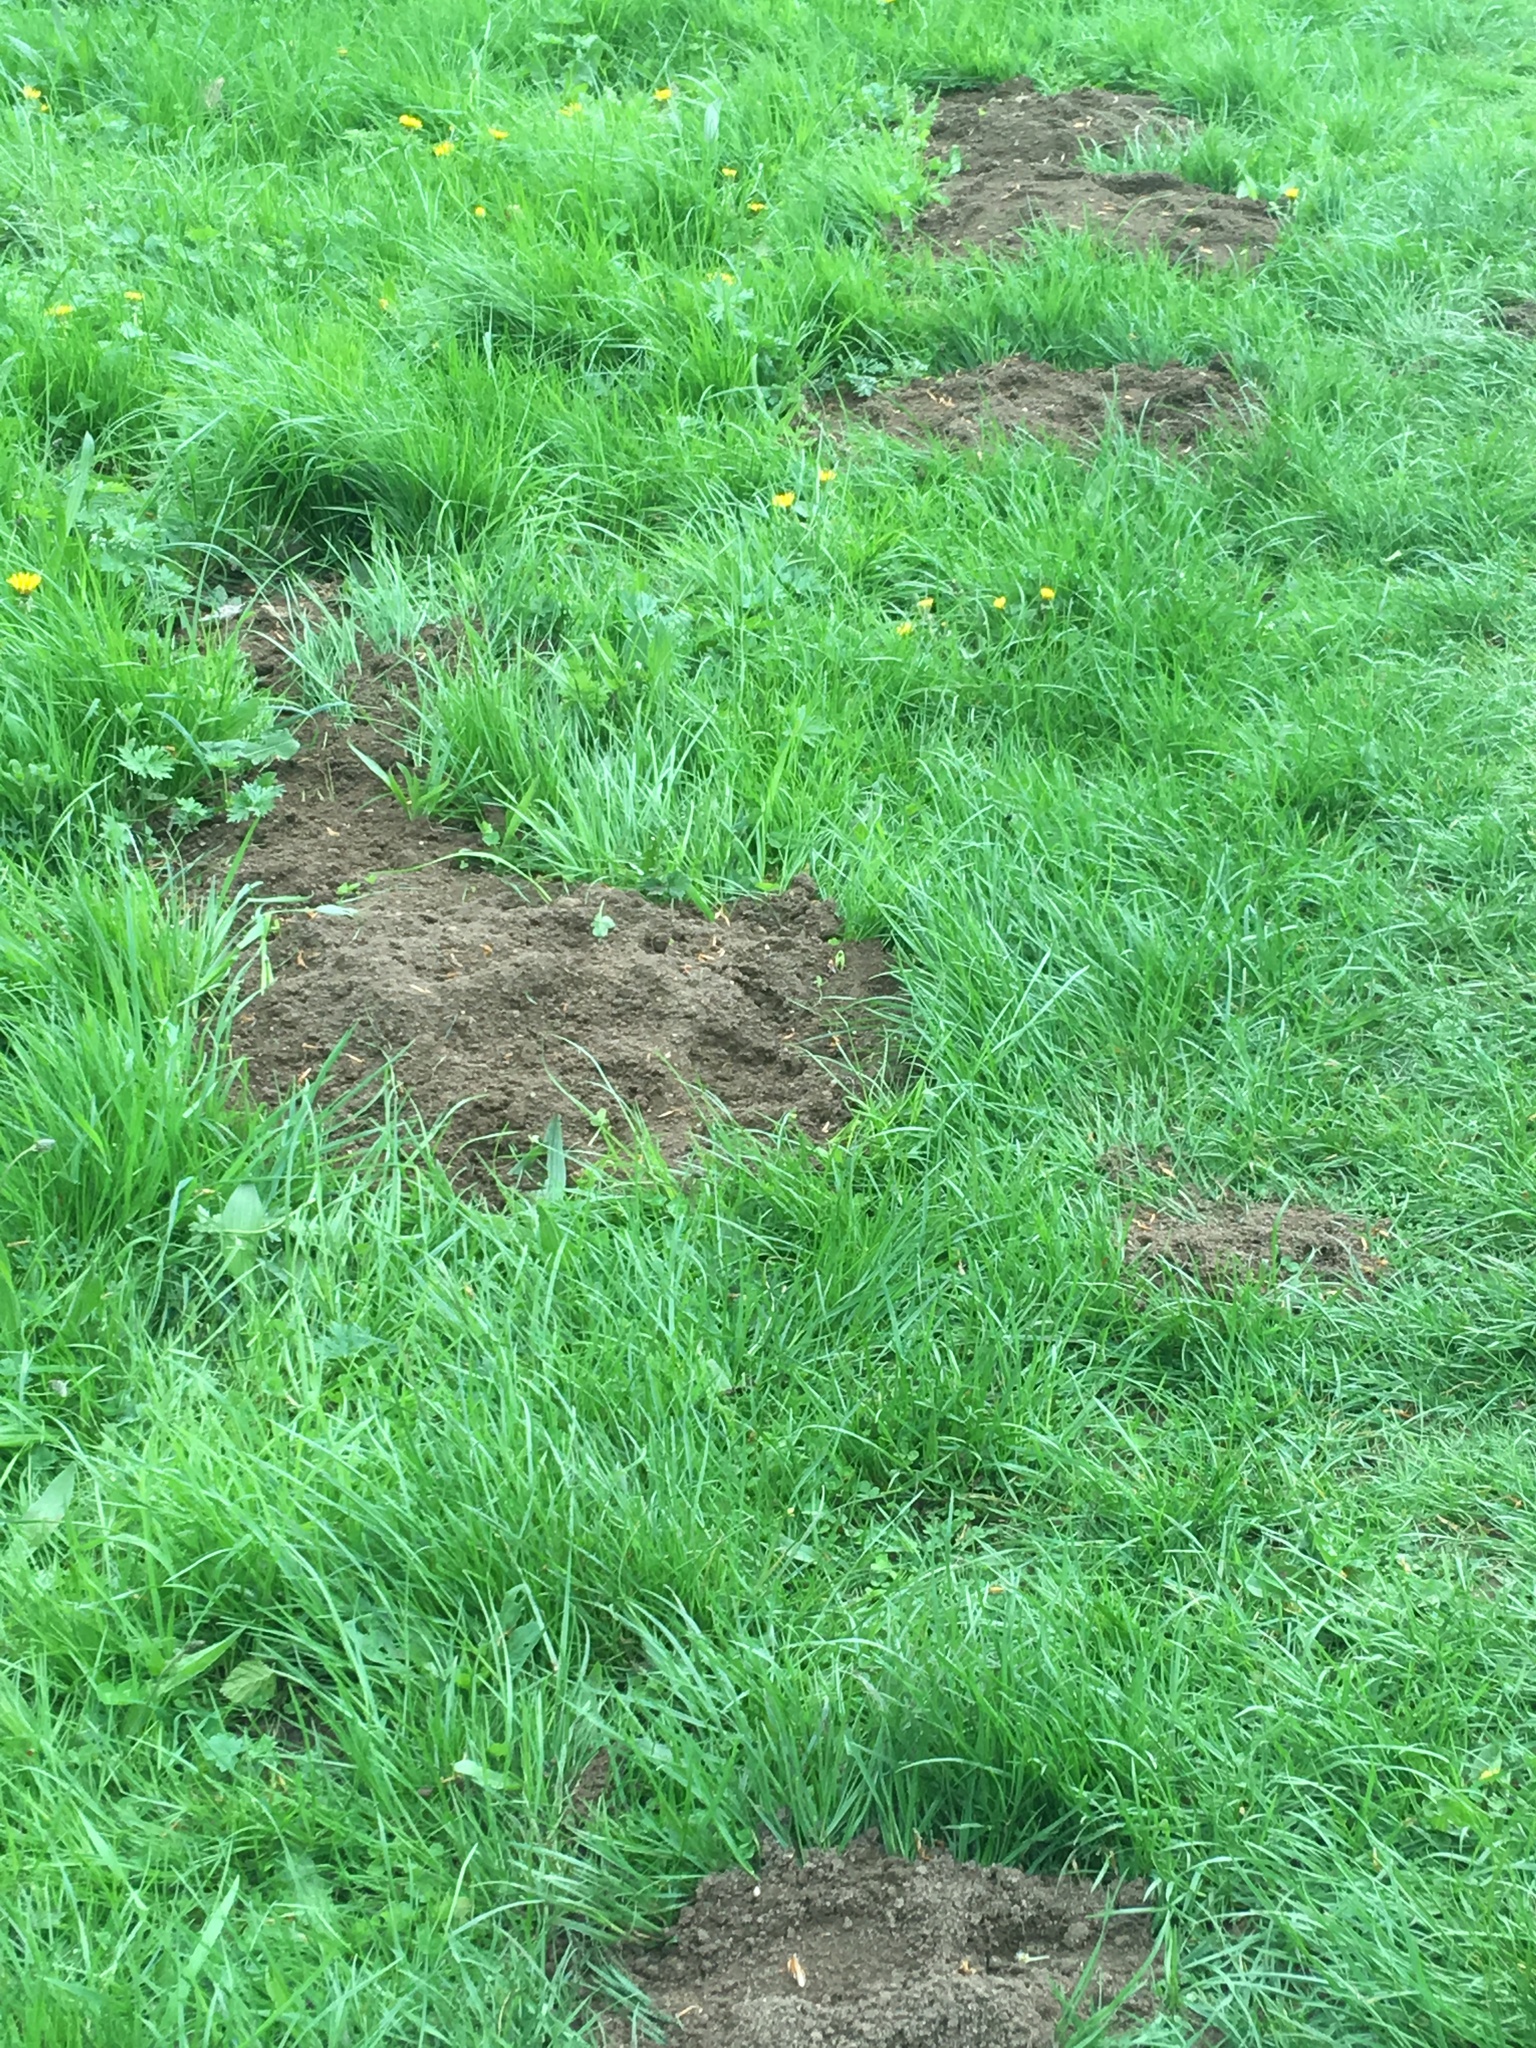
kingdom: Animalia
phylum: Chordata
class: Mammalia
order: Soricomorpha
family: Talpidae
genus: Talpa
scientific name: Talpa europaea
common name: European mole
